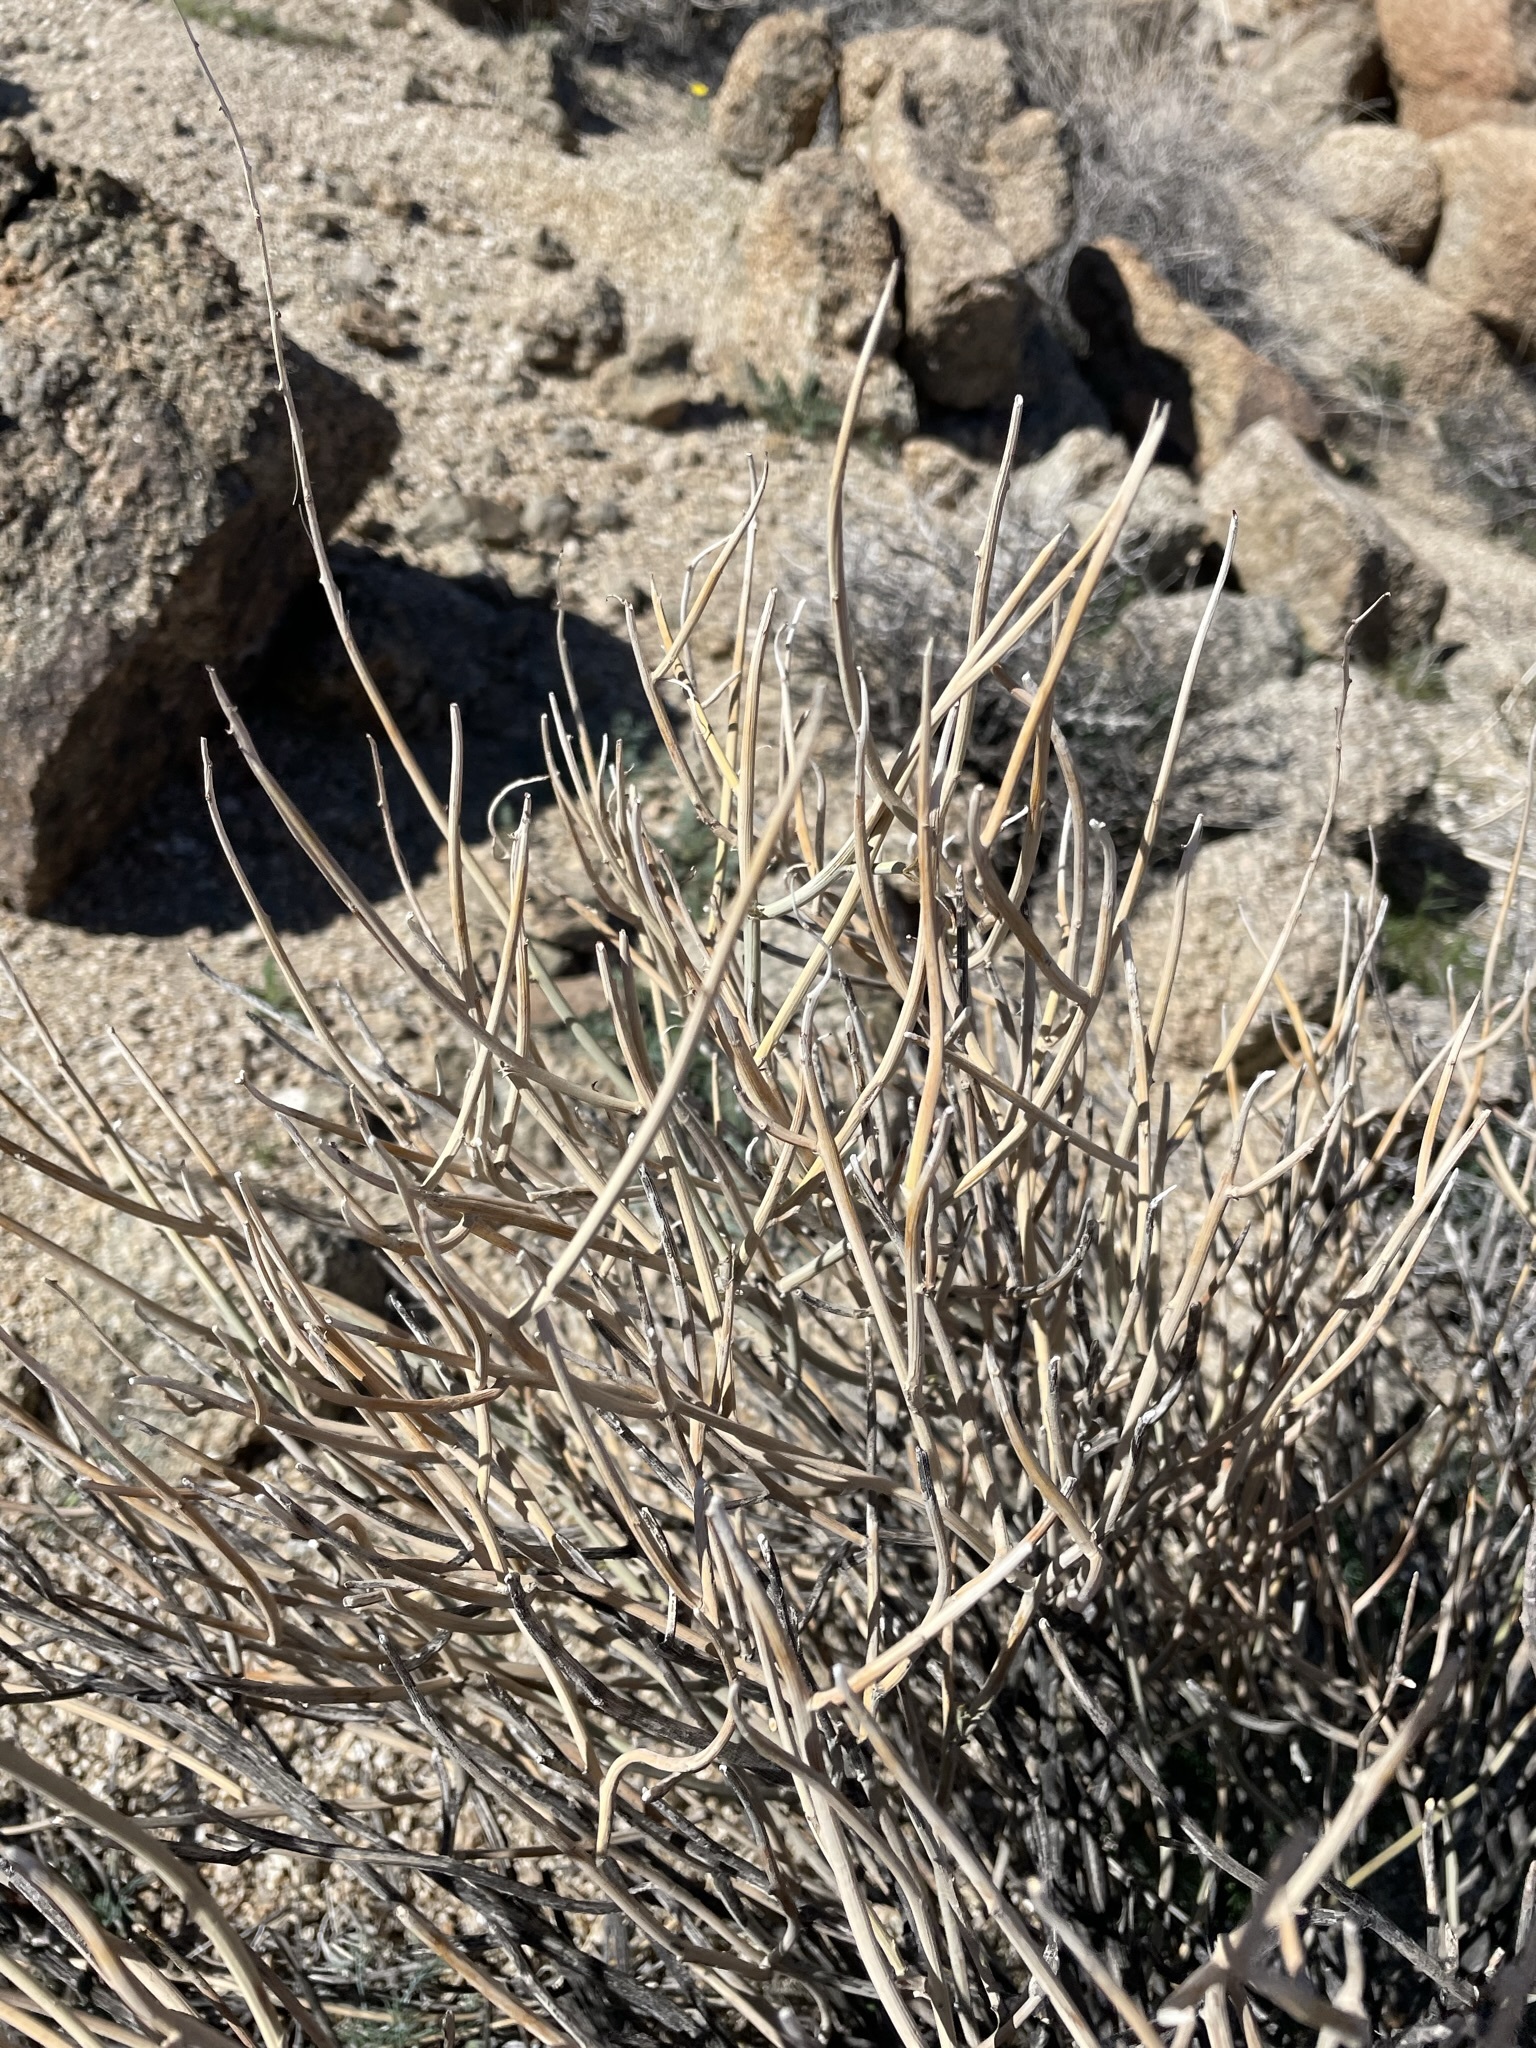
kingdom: Plantae
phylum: Tracheophyta
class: Magnoliopsida
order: Fabales
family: Fabaceae
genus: Senna
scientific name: Senna armata
